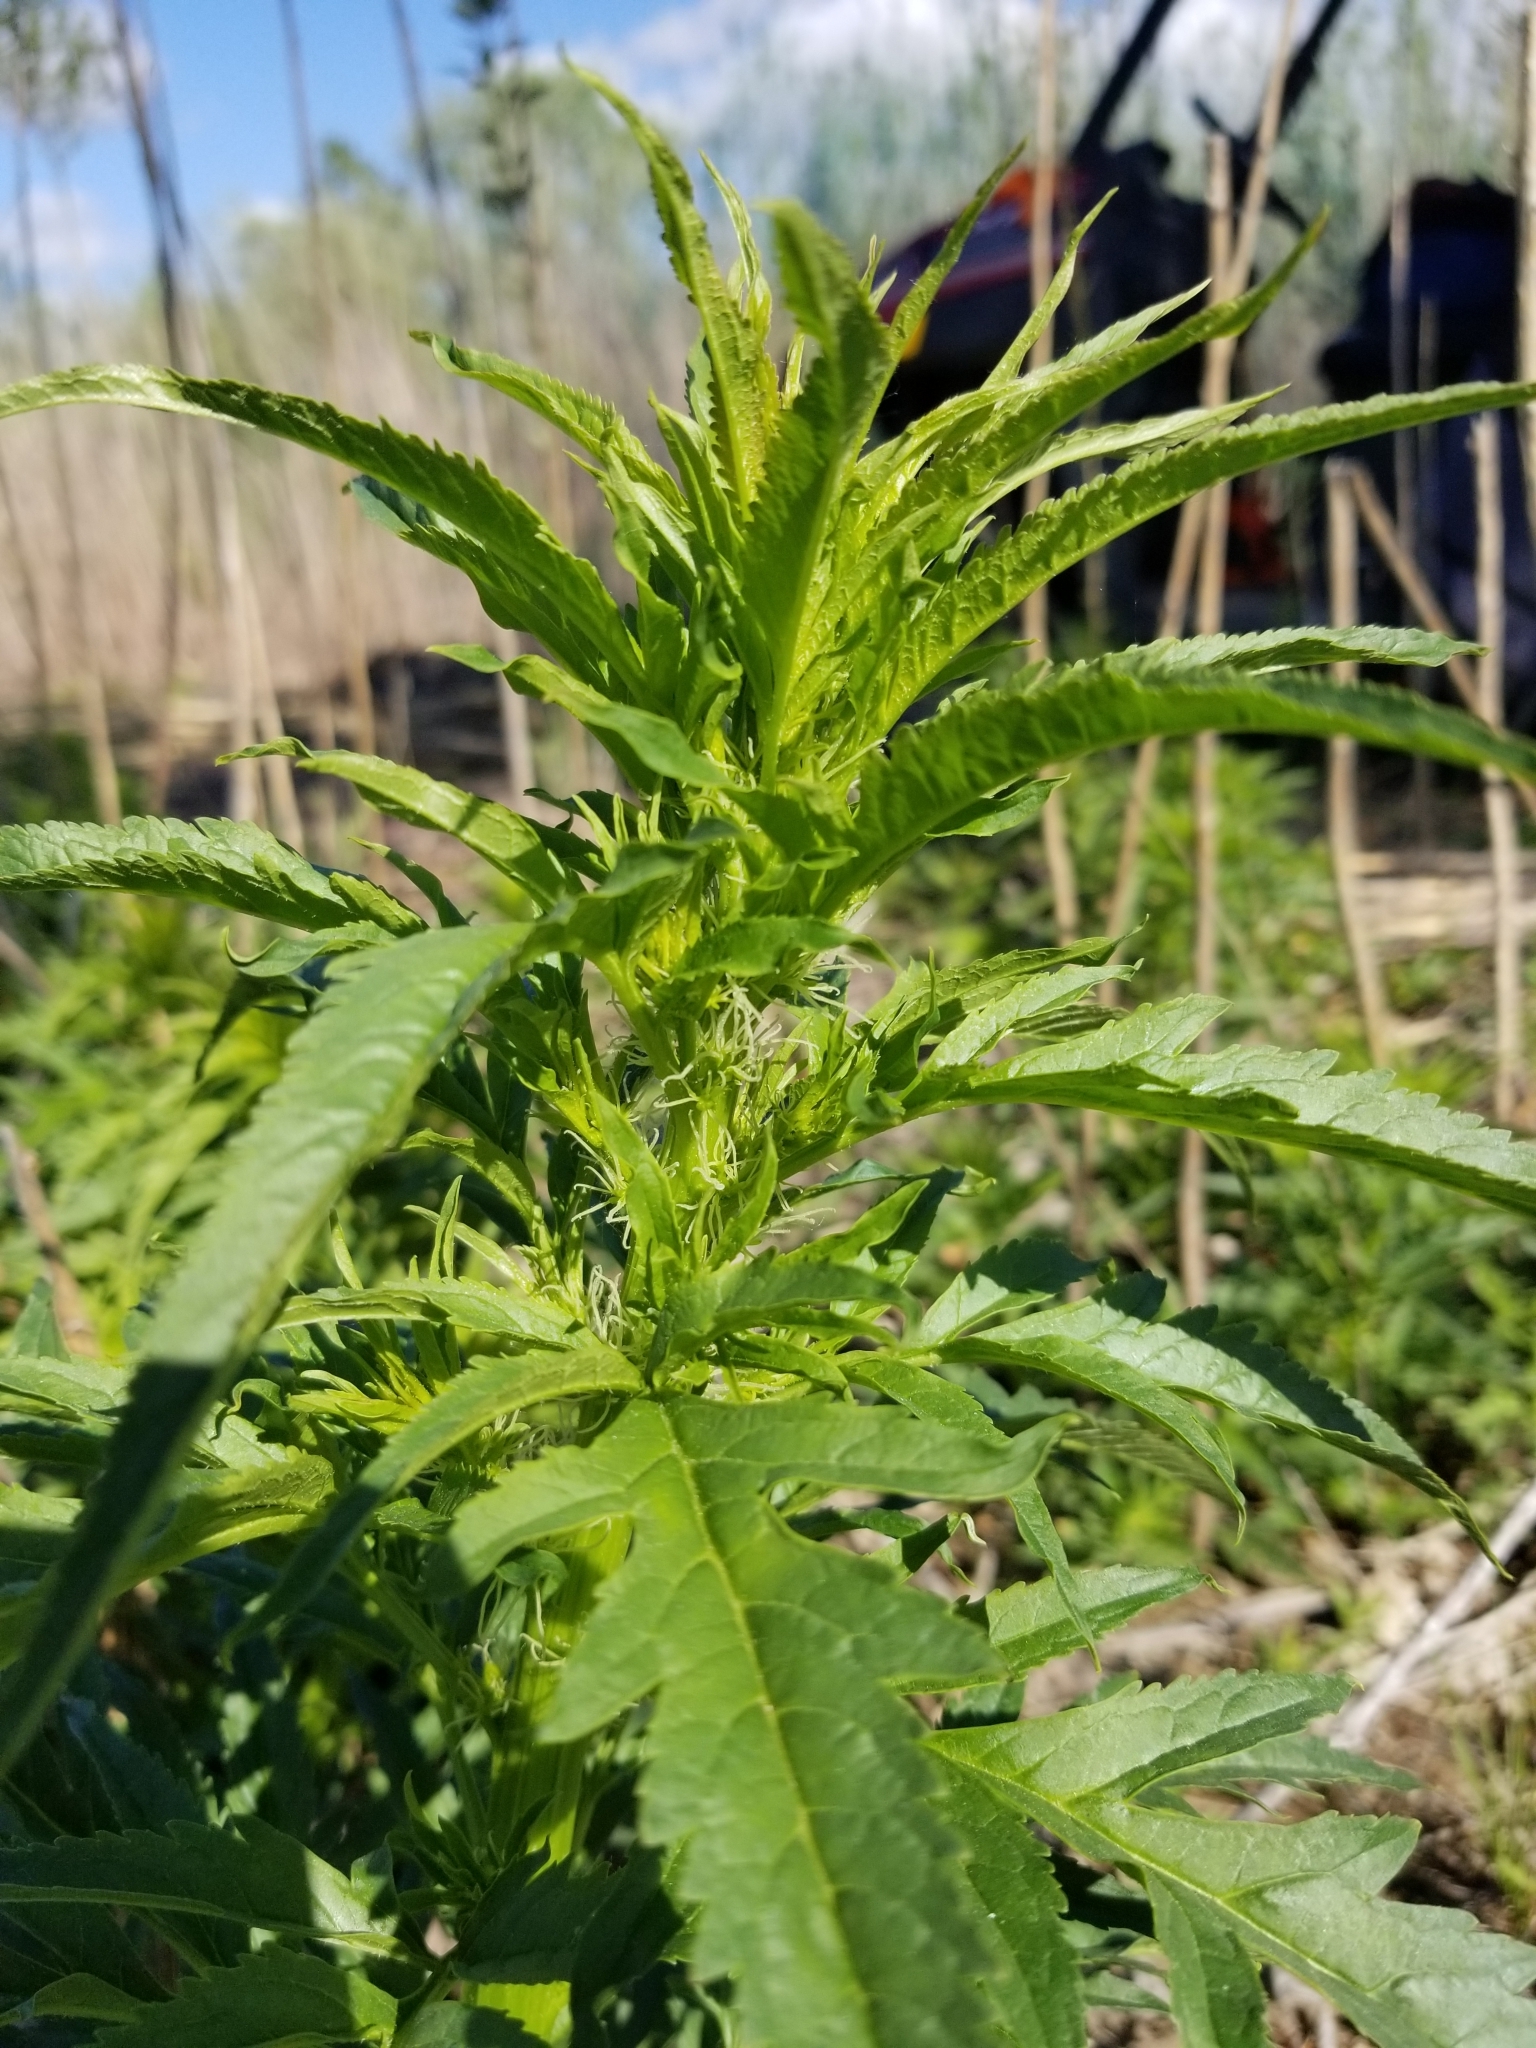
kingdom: Plantae
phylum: Tracheophyta
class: Magnoliopsida
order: Cucurbitales
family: Datiscaceae
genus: Datisca
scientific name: Datisca glomerata
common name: Durango-root
